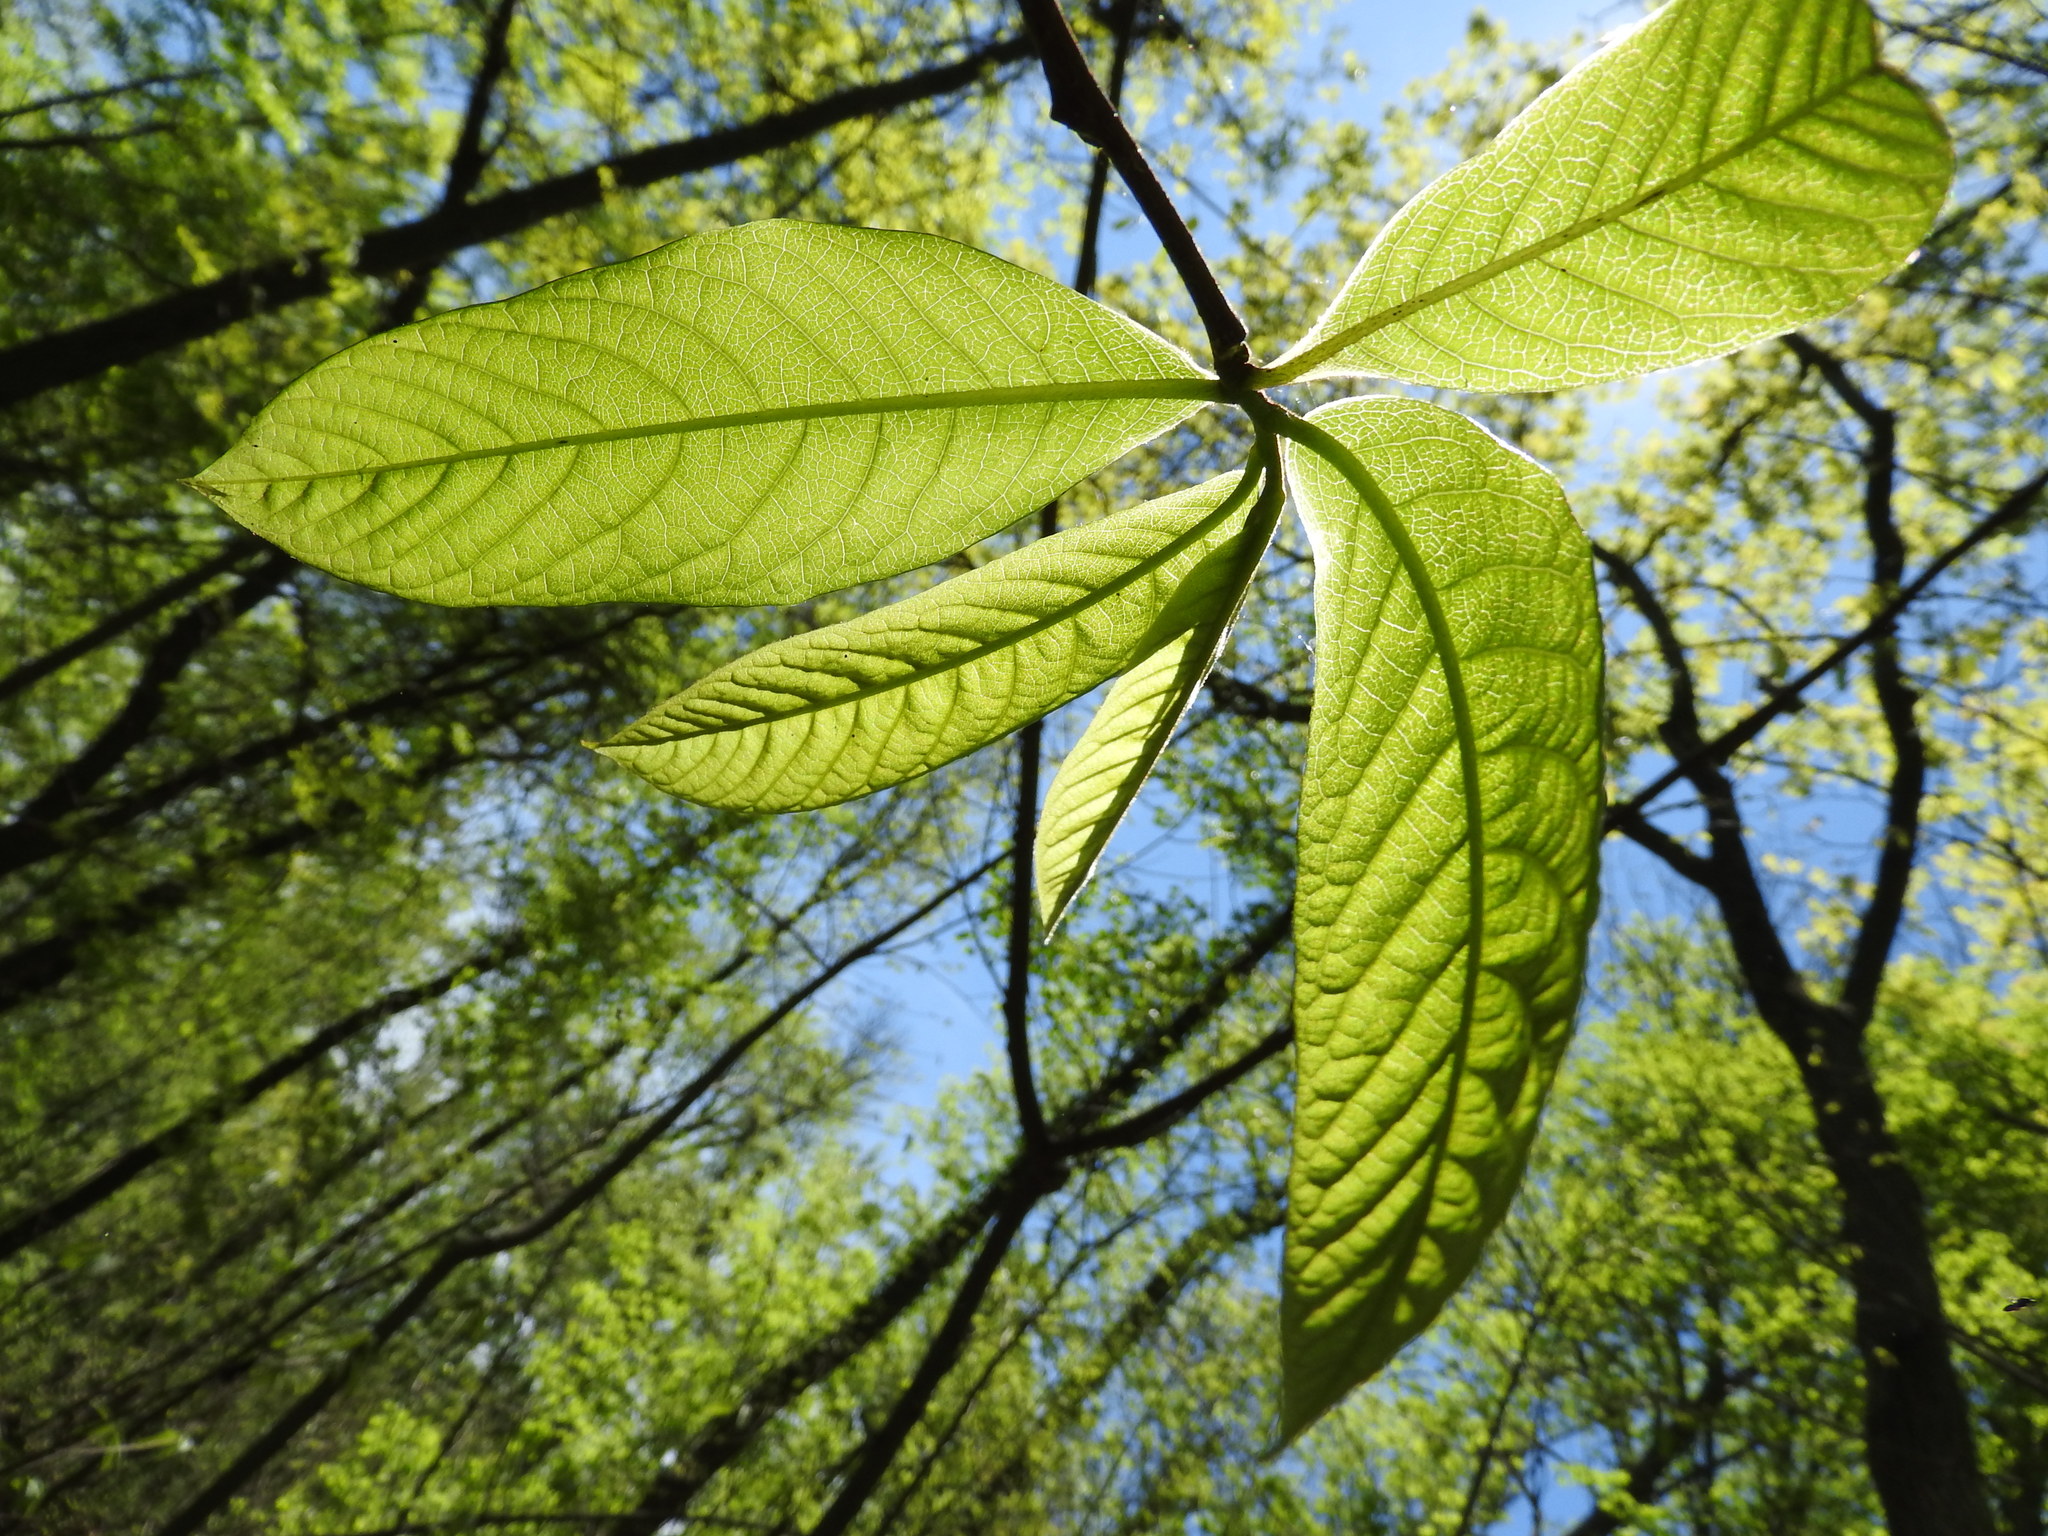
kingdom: Plantae
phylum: Tracheophyta
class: Magnoliopsida
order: Magnoliales
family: Annonaceae
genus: Asimina
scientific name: Asimina triloba
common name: Dog-banana
